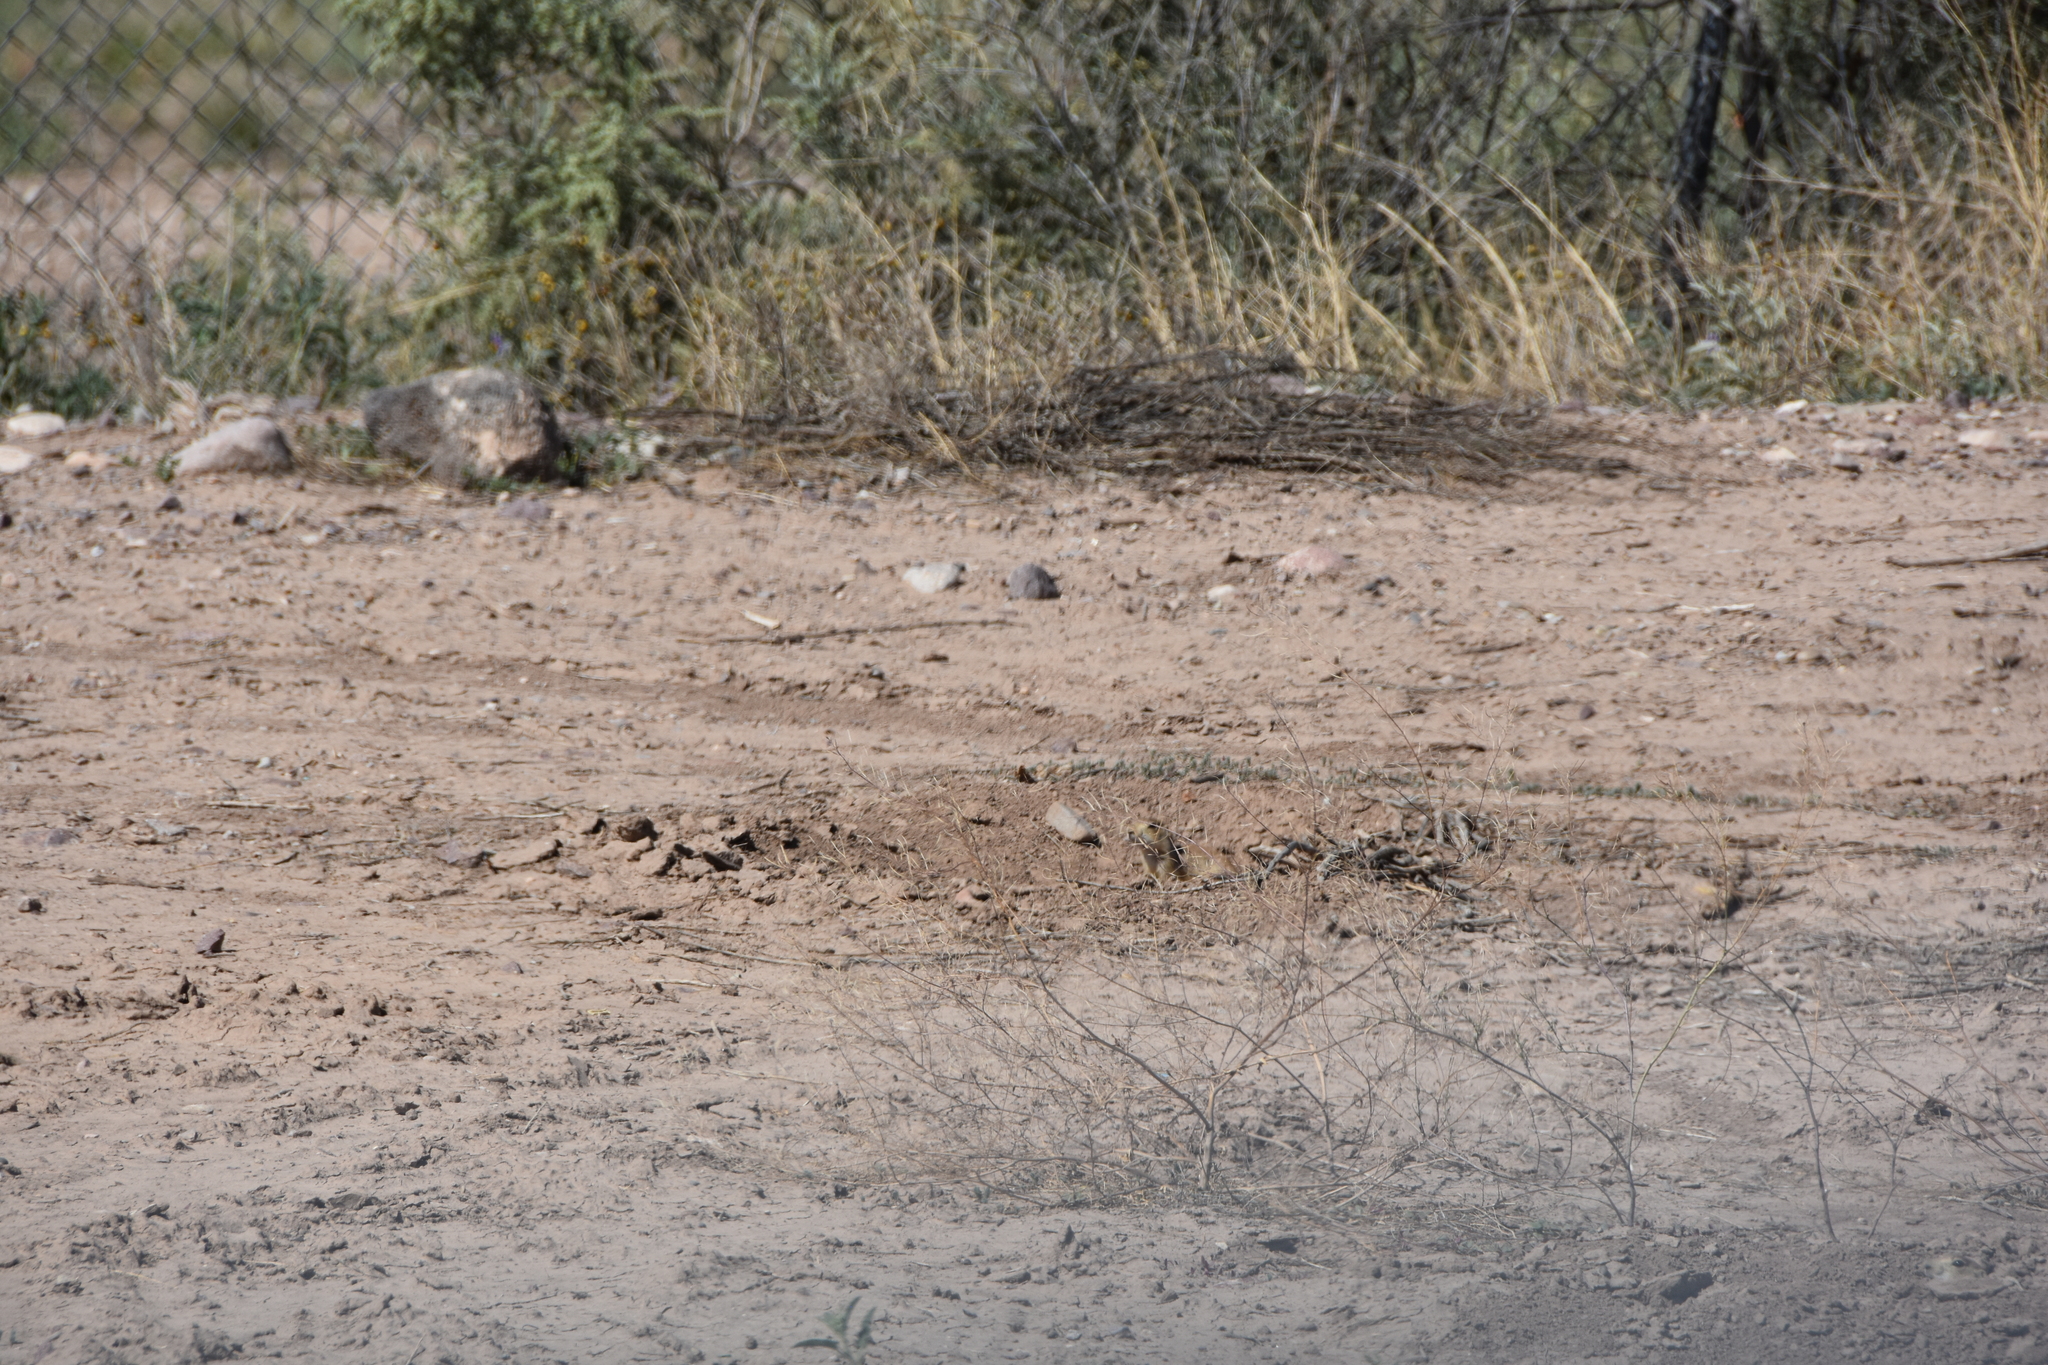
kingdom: Animalia
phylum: Chordata
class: Mammalia
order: Rodentia
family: Sciuridae
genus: Cynomys
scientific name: Cynomys gunnisoni
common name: Gunnison's prairie dog
